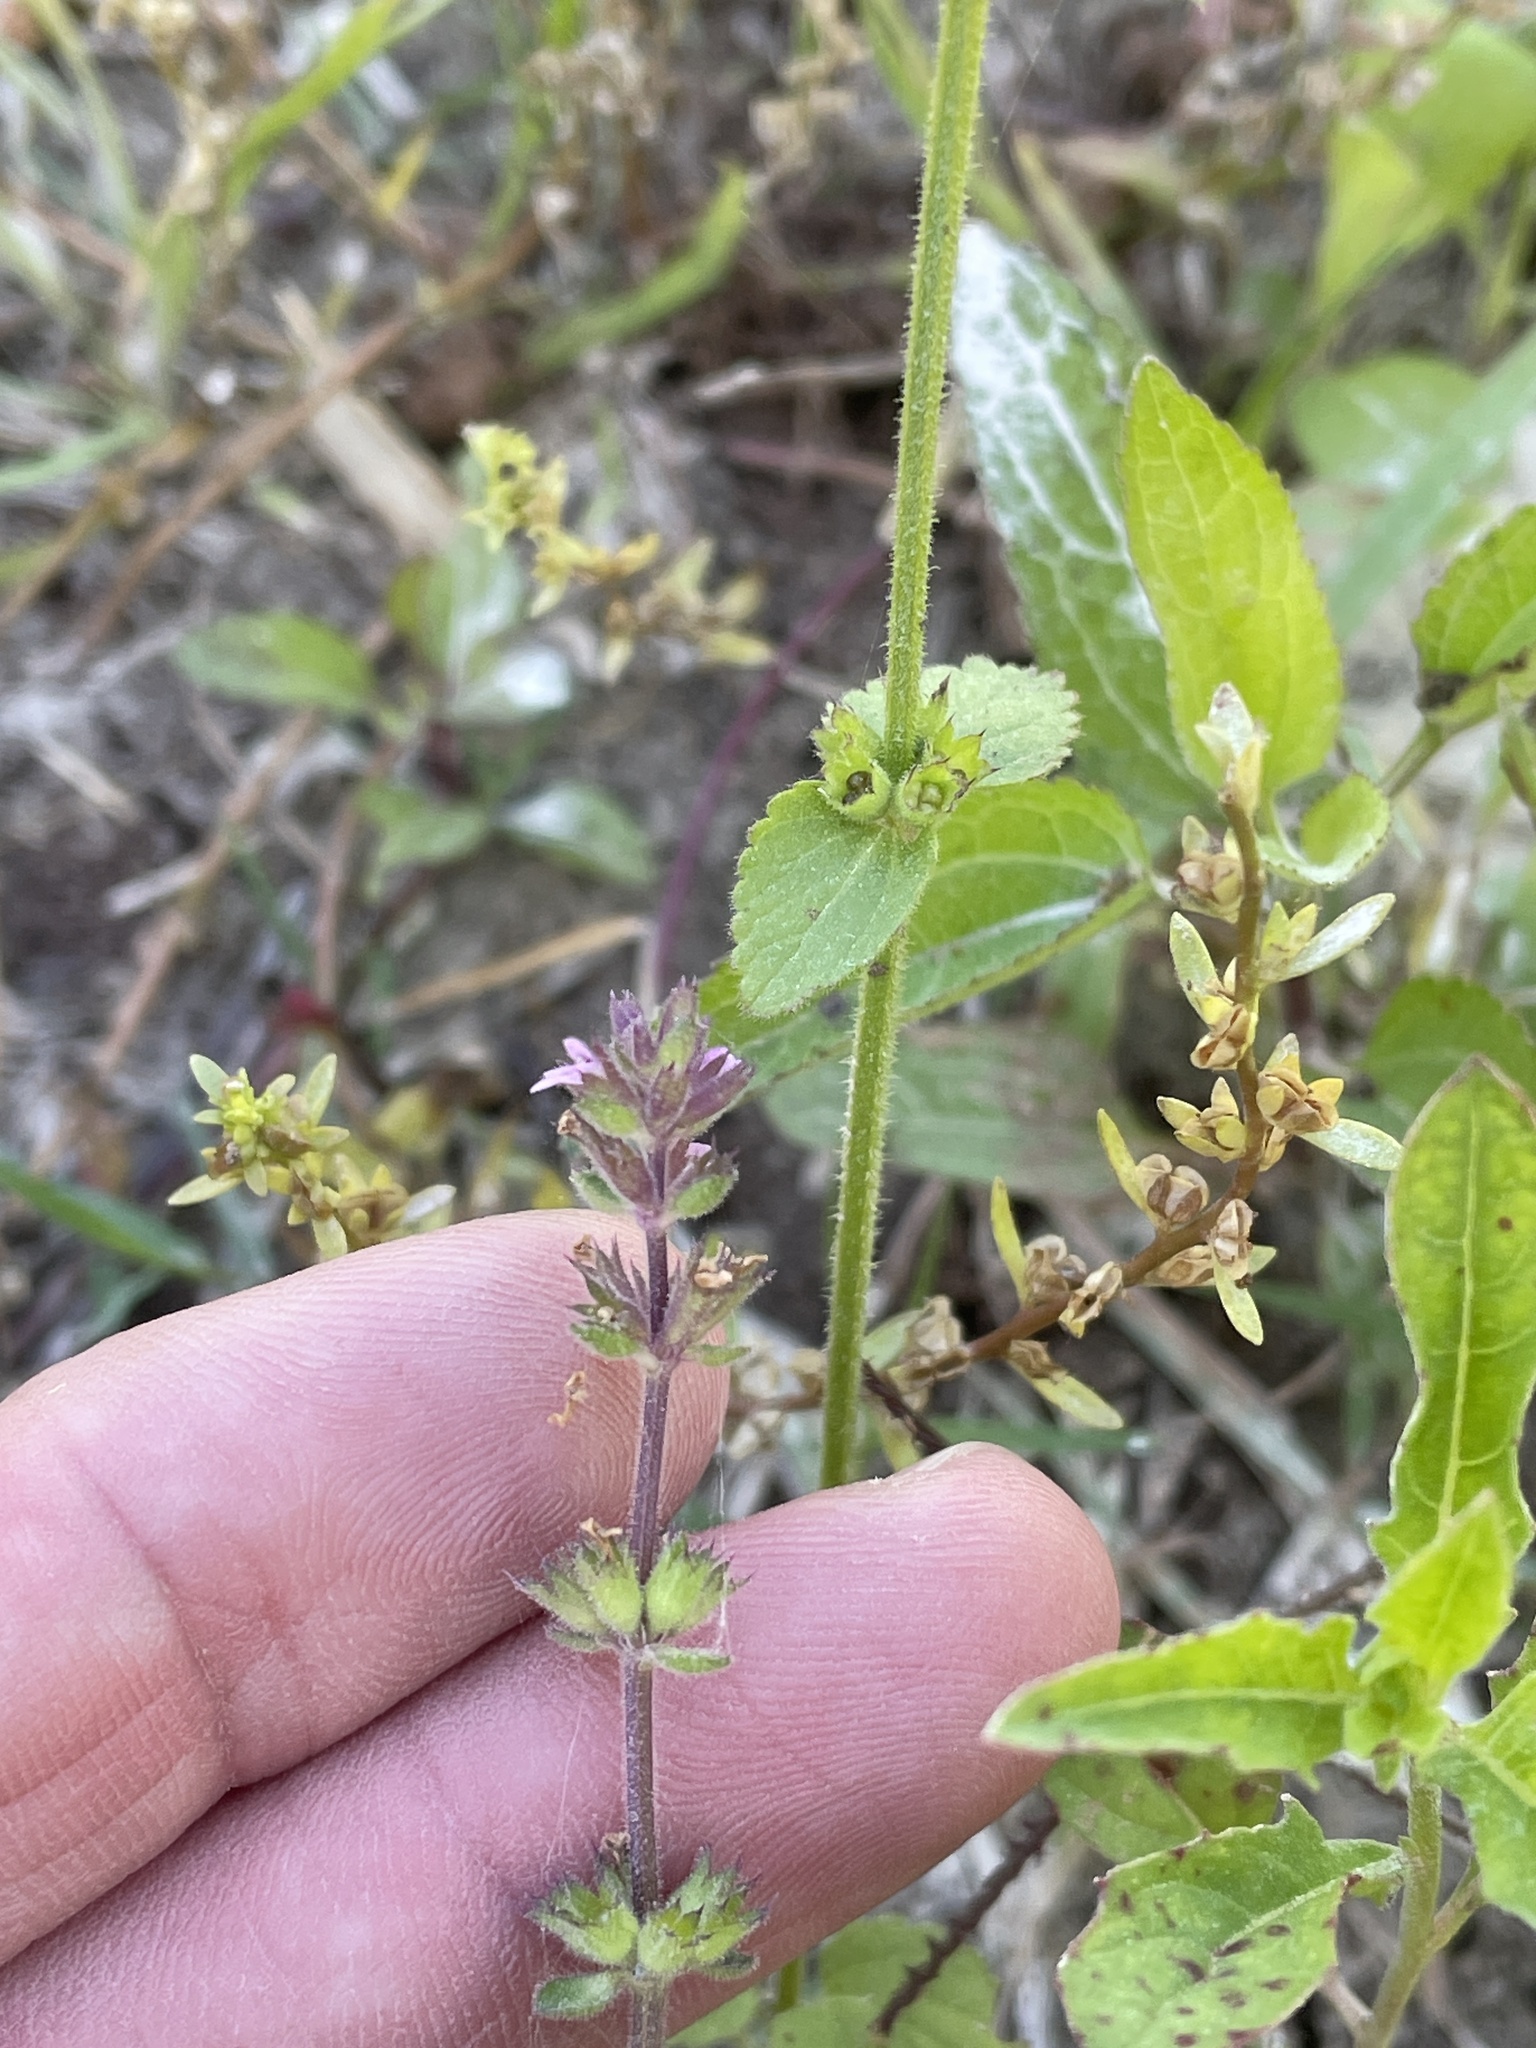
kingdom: Plantae
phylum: Tracheophyta
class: Magnoliopsida
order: Lamiales
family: Lamiaceae
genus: Stachys
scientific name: Stachys
